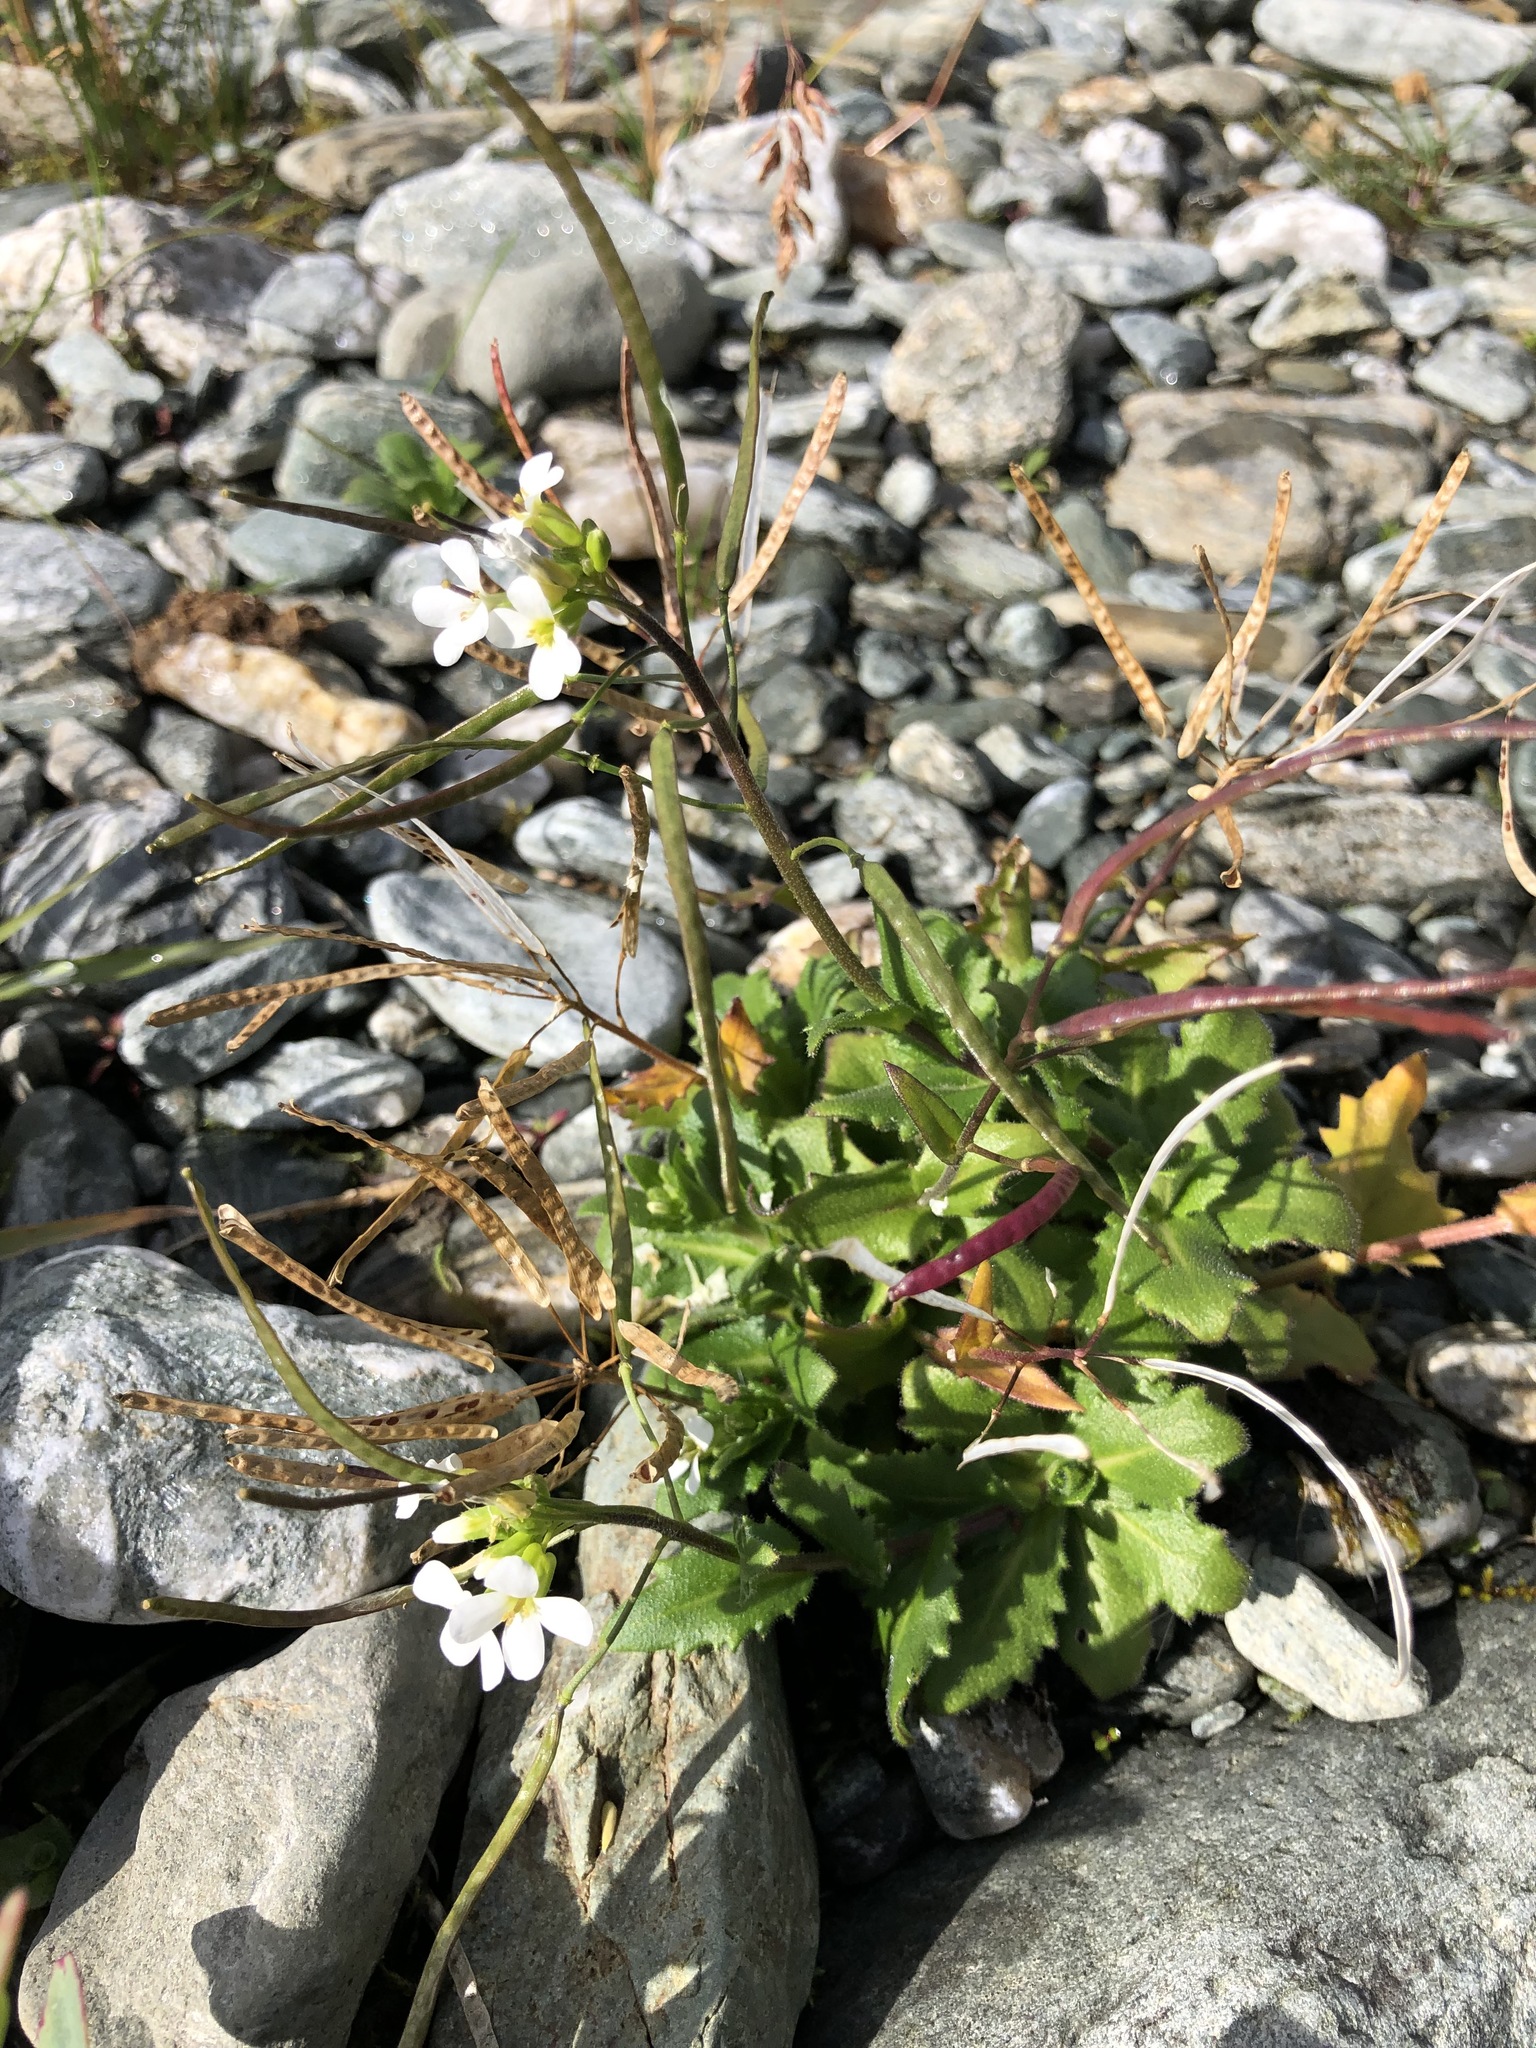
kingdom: Plantae
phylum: Tracheophyta
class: Magnoliopsida
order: Brassicales
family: Brassicaceae
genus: Arabis
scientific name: Arabis alpina
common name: Alpine rock-cress
